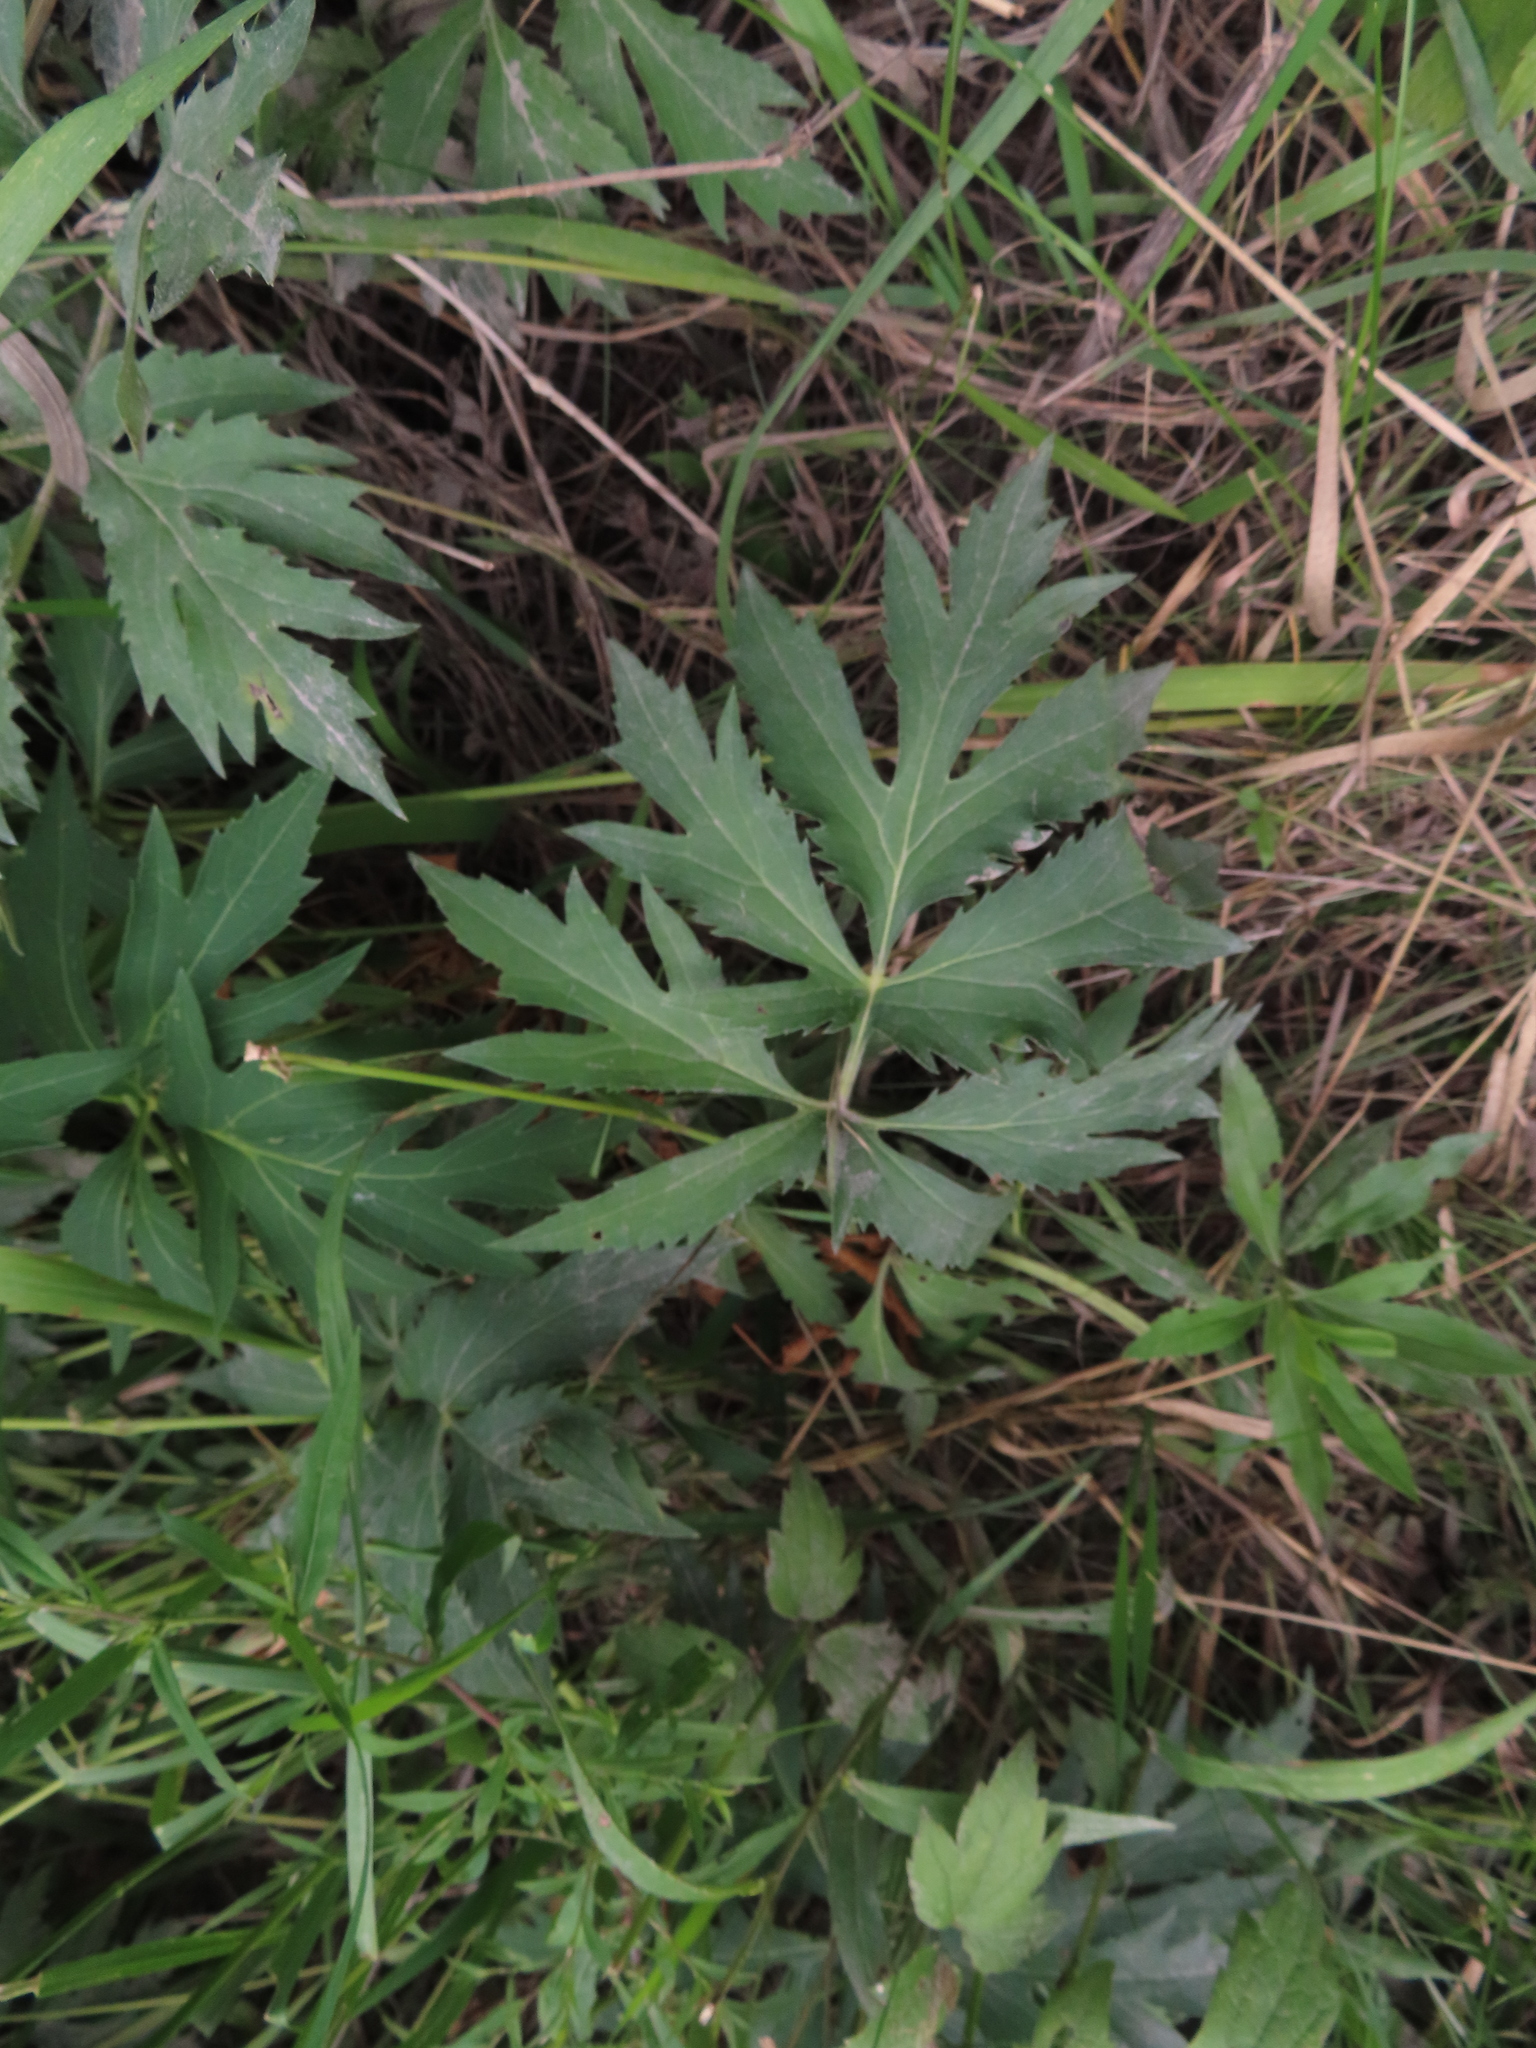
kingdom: Plantae
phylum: Tracheophyta
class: Magnoliopsida
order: Asterales
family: Asteraceae
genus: Rudbeckia
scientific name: Rudbeckia laciniata
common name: Coneflower
